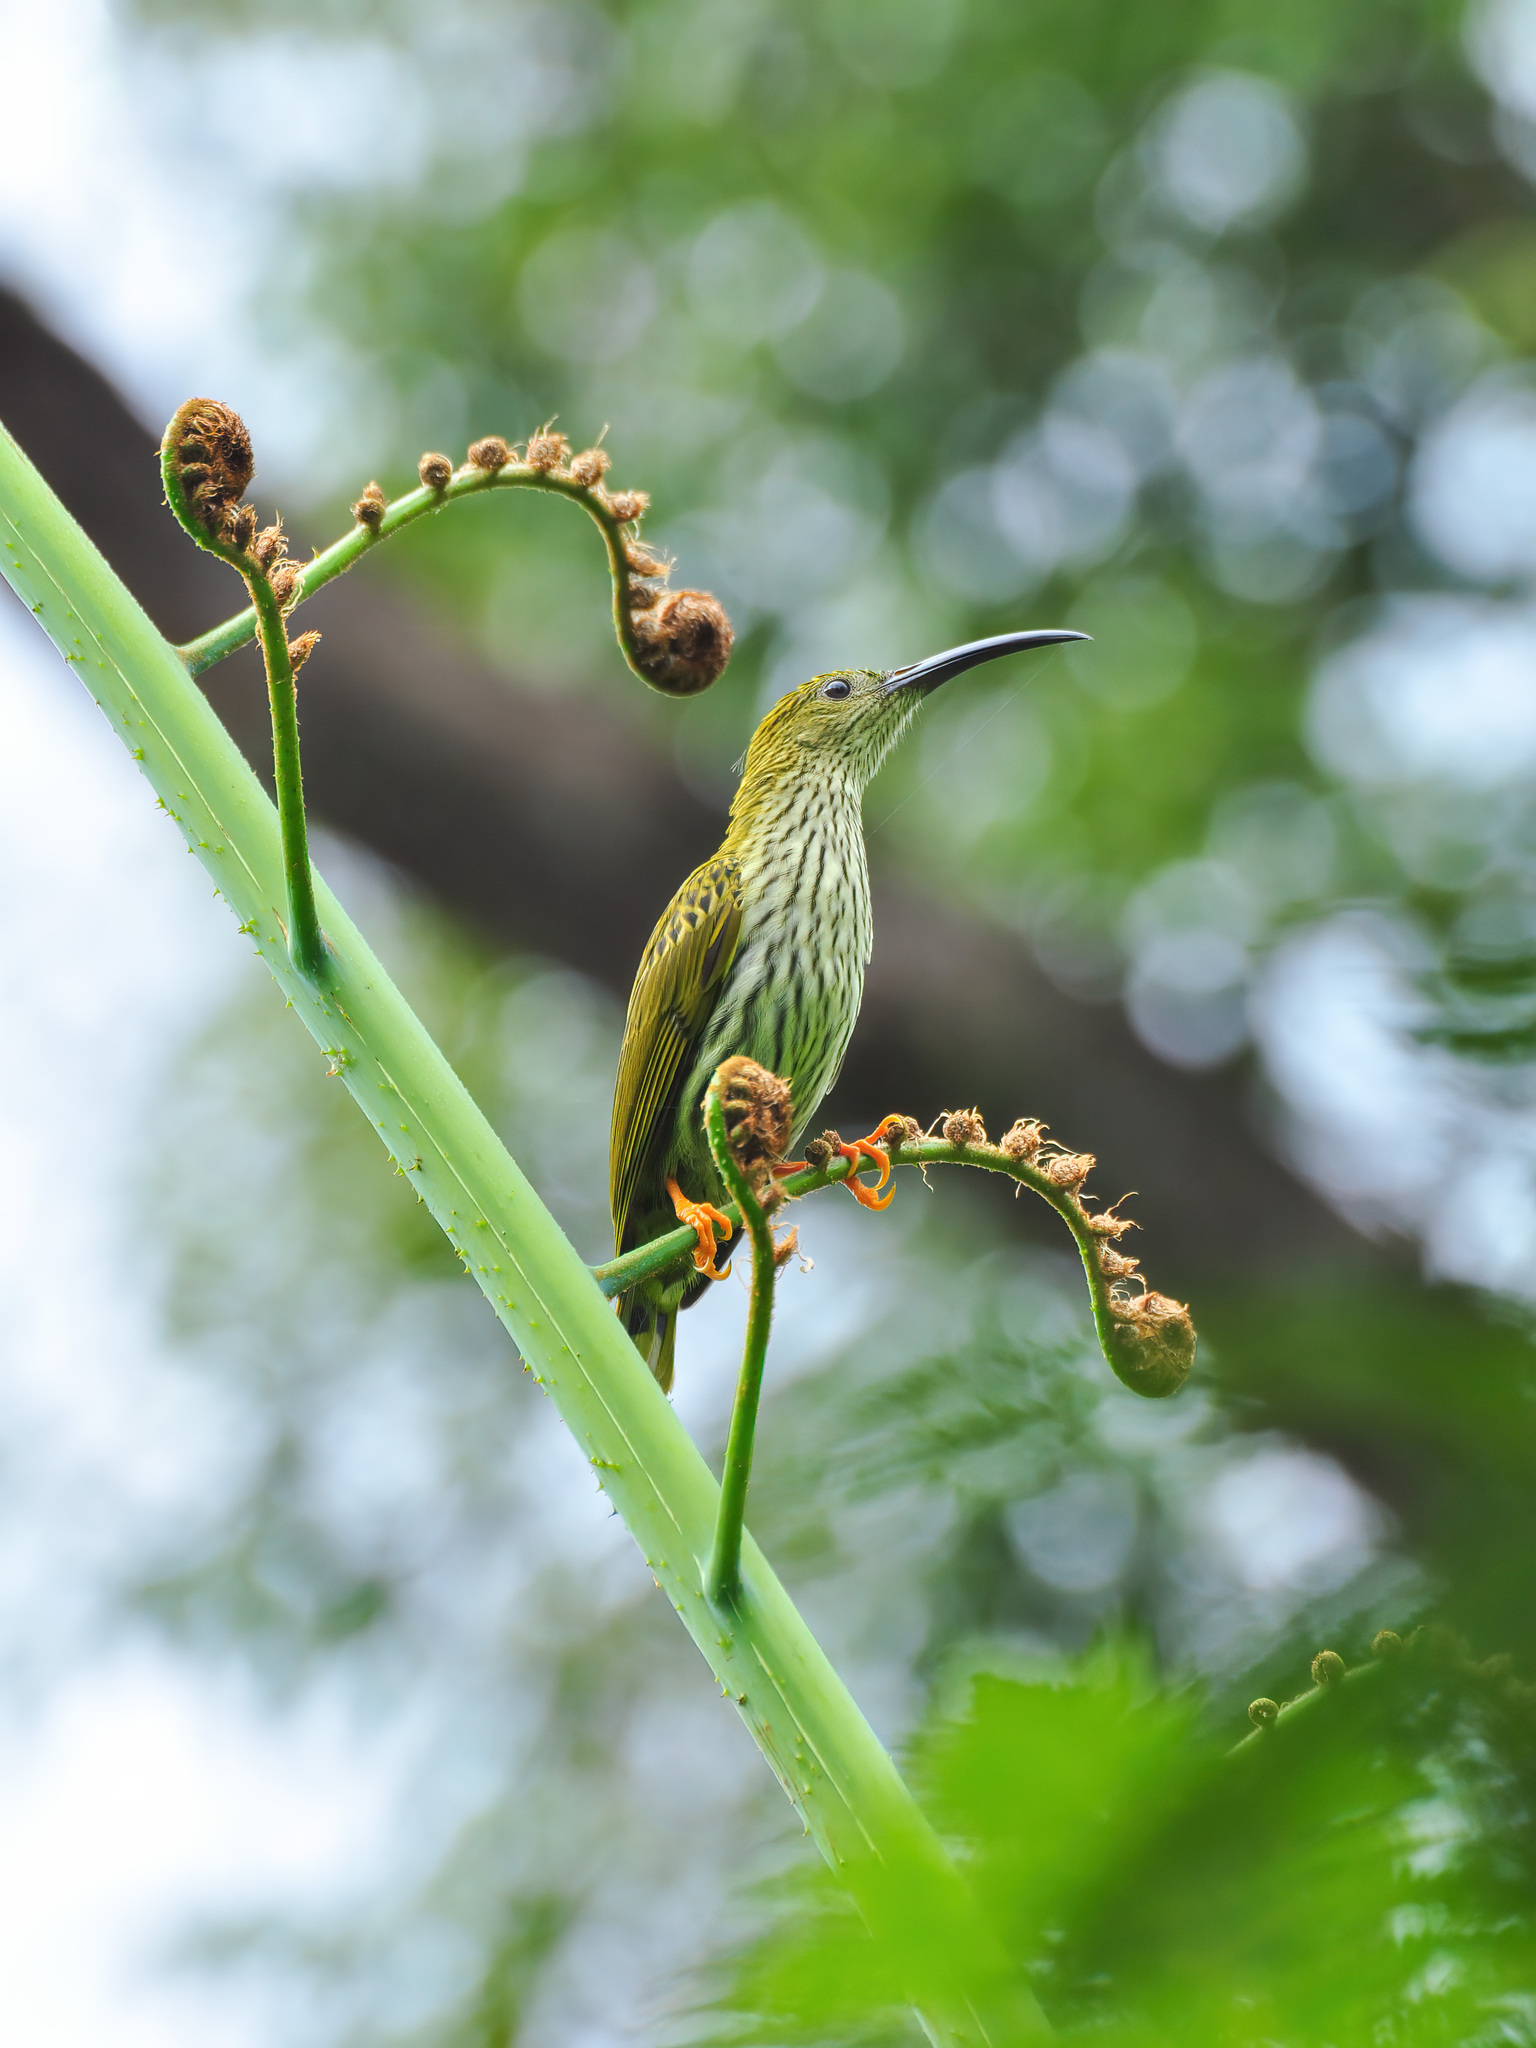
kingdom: Animalia
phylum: Chordata
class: Aves
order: Passeriformes
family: Nectariniidae
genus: Arachnothera
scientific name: Arachnothera magna
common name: Streaked spiderhunter
